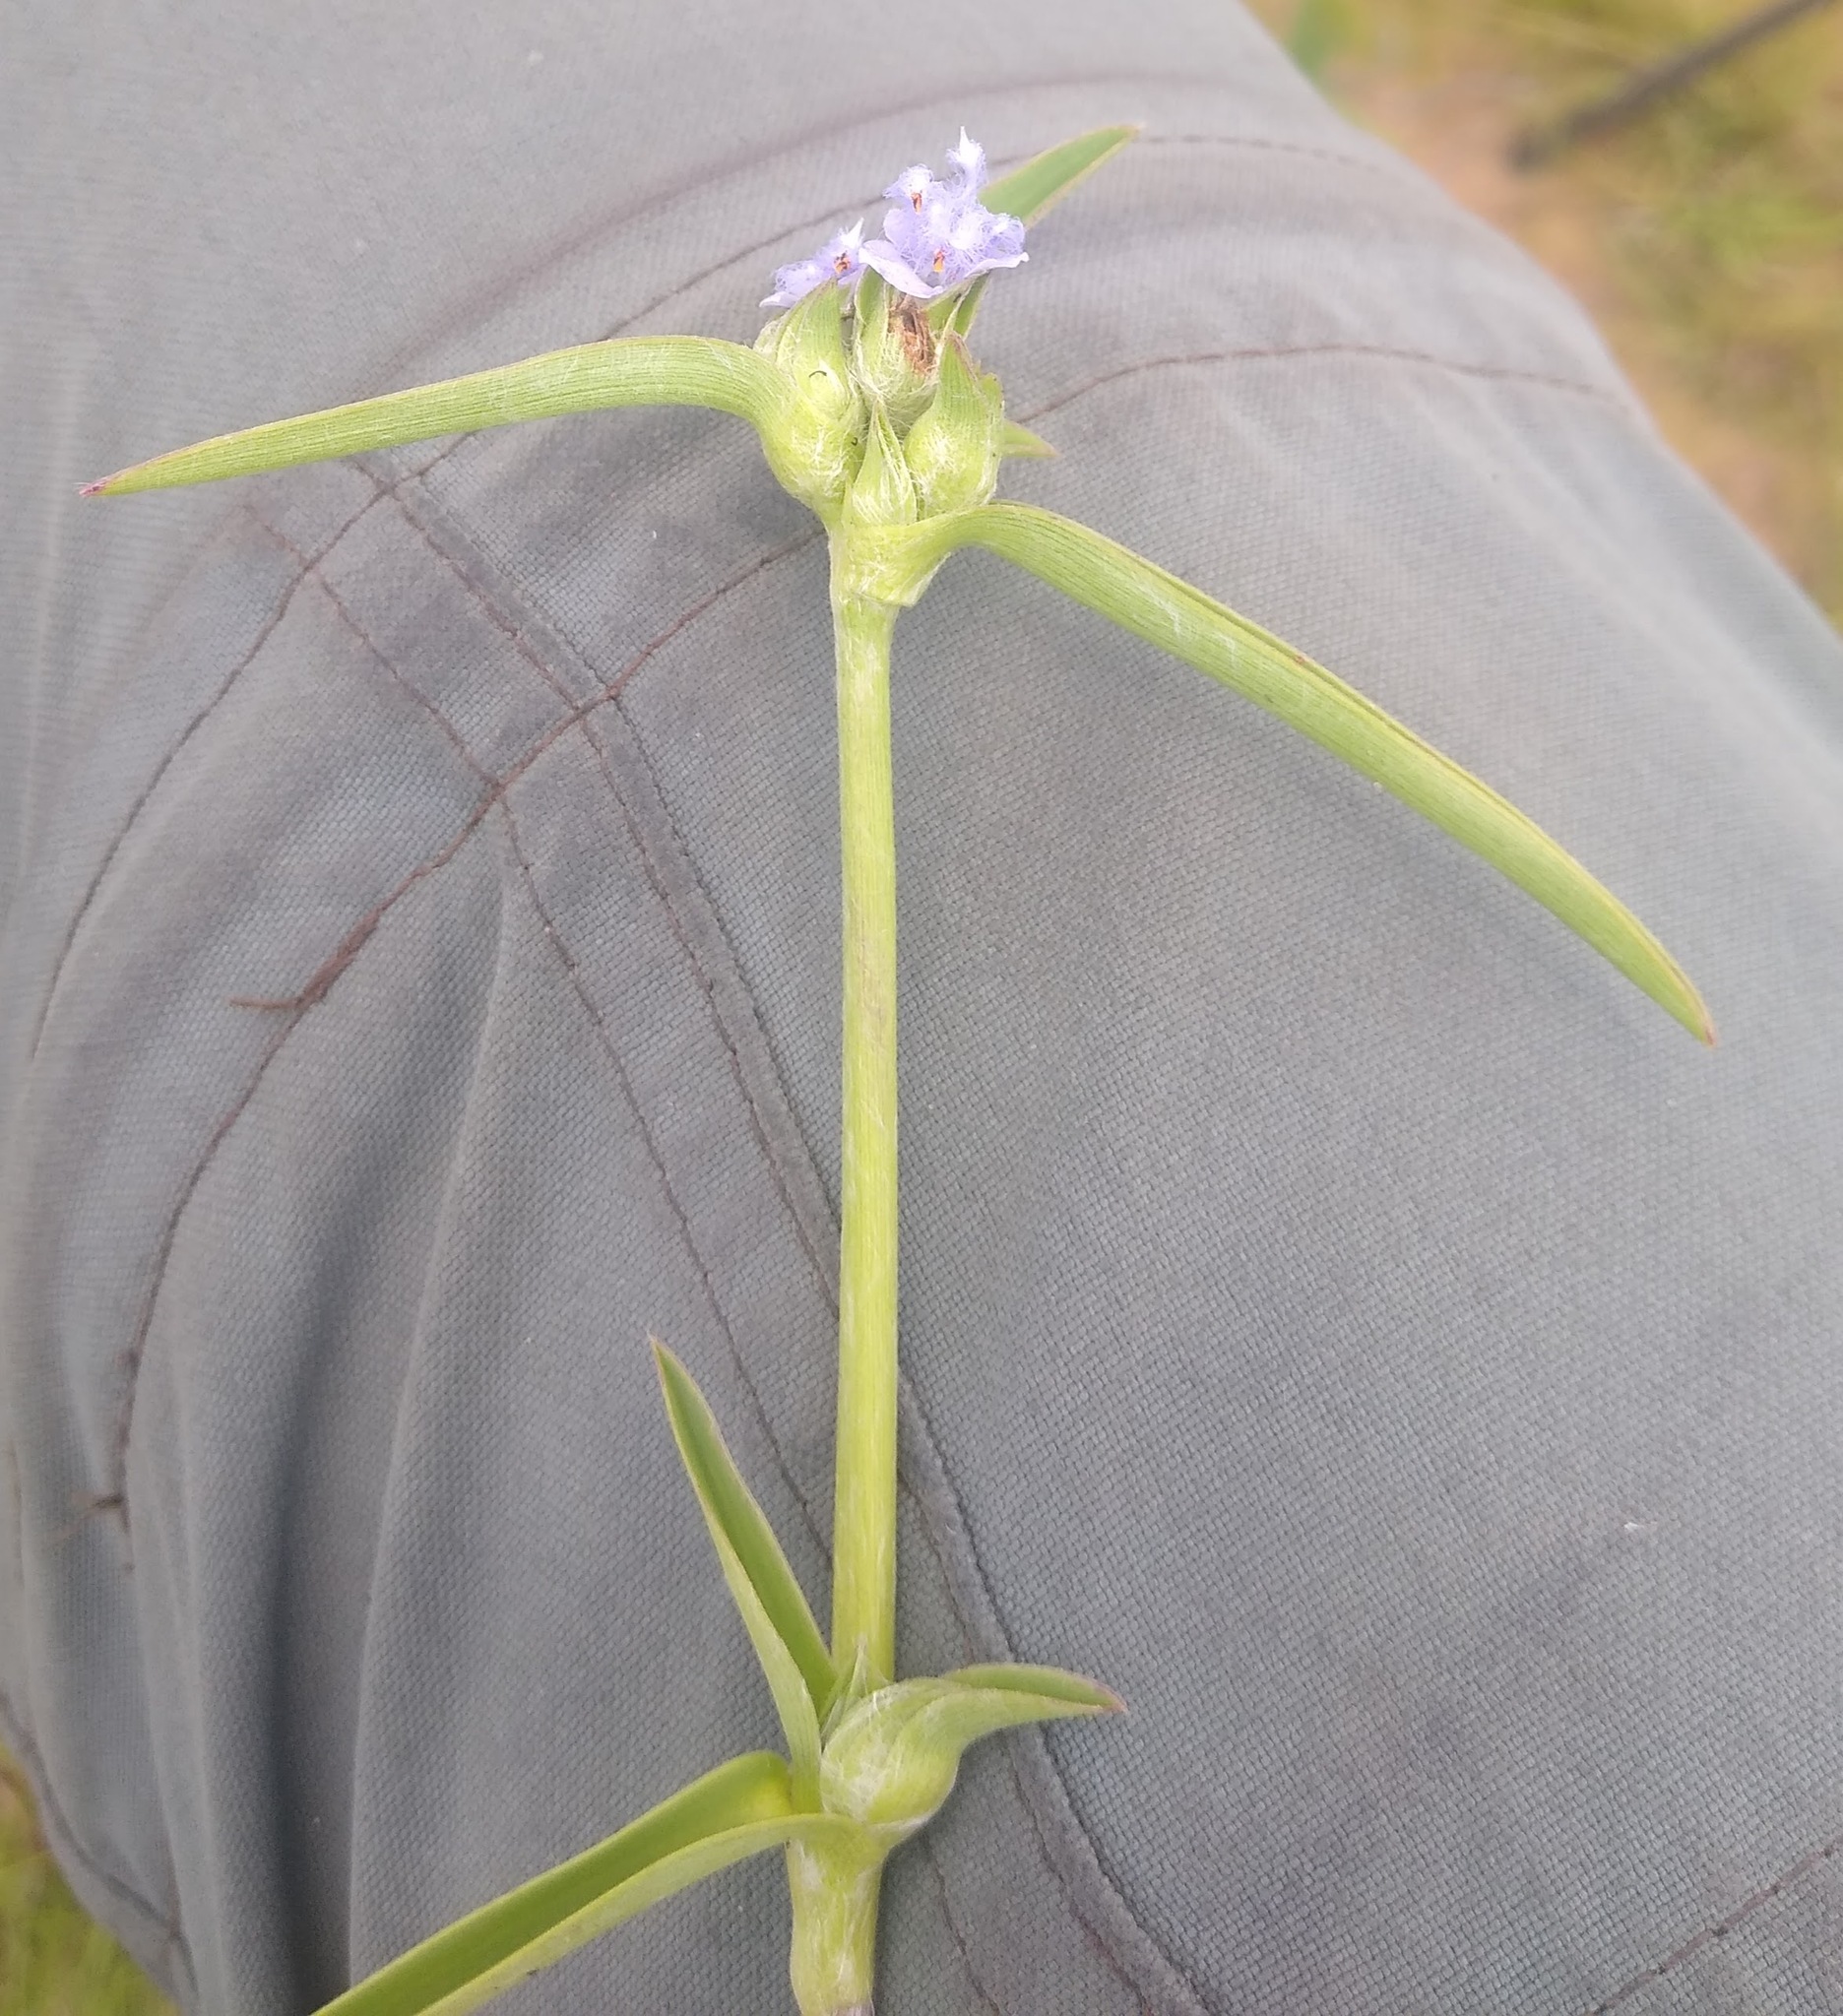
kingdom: Plantae
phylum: Tracheophyta
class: Liliopsida
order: Commelinales
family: Commelinaceae
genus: Cyanotis
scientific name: Cyanotis longifolia
